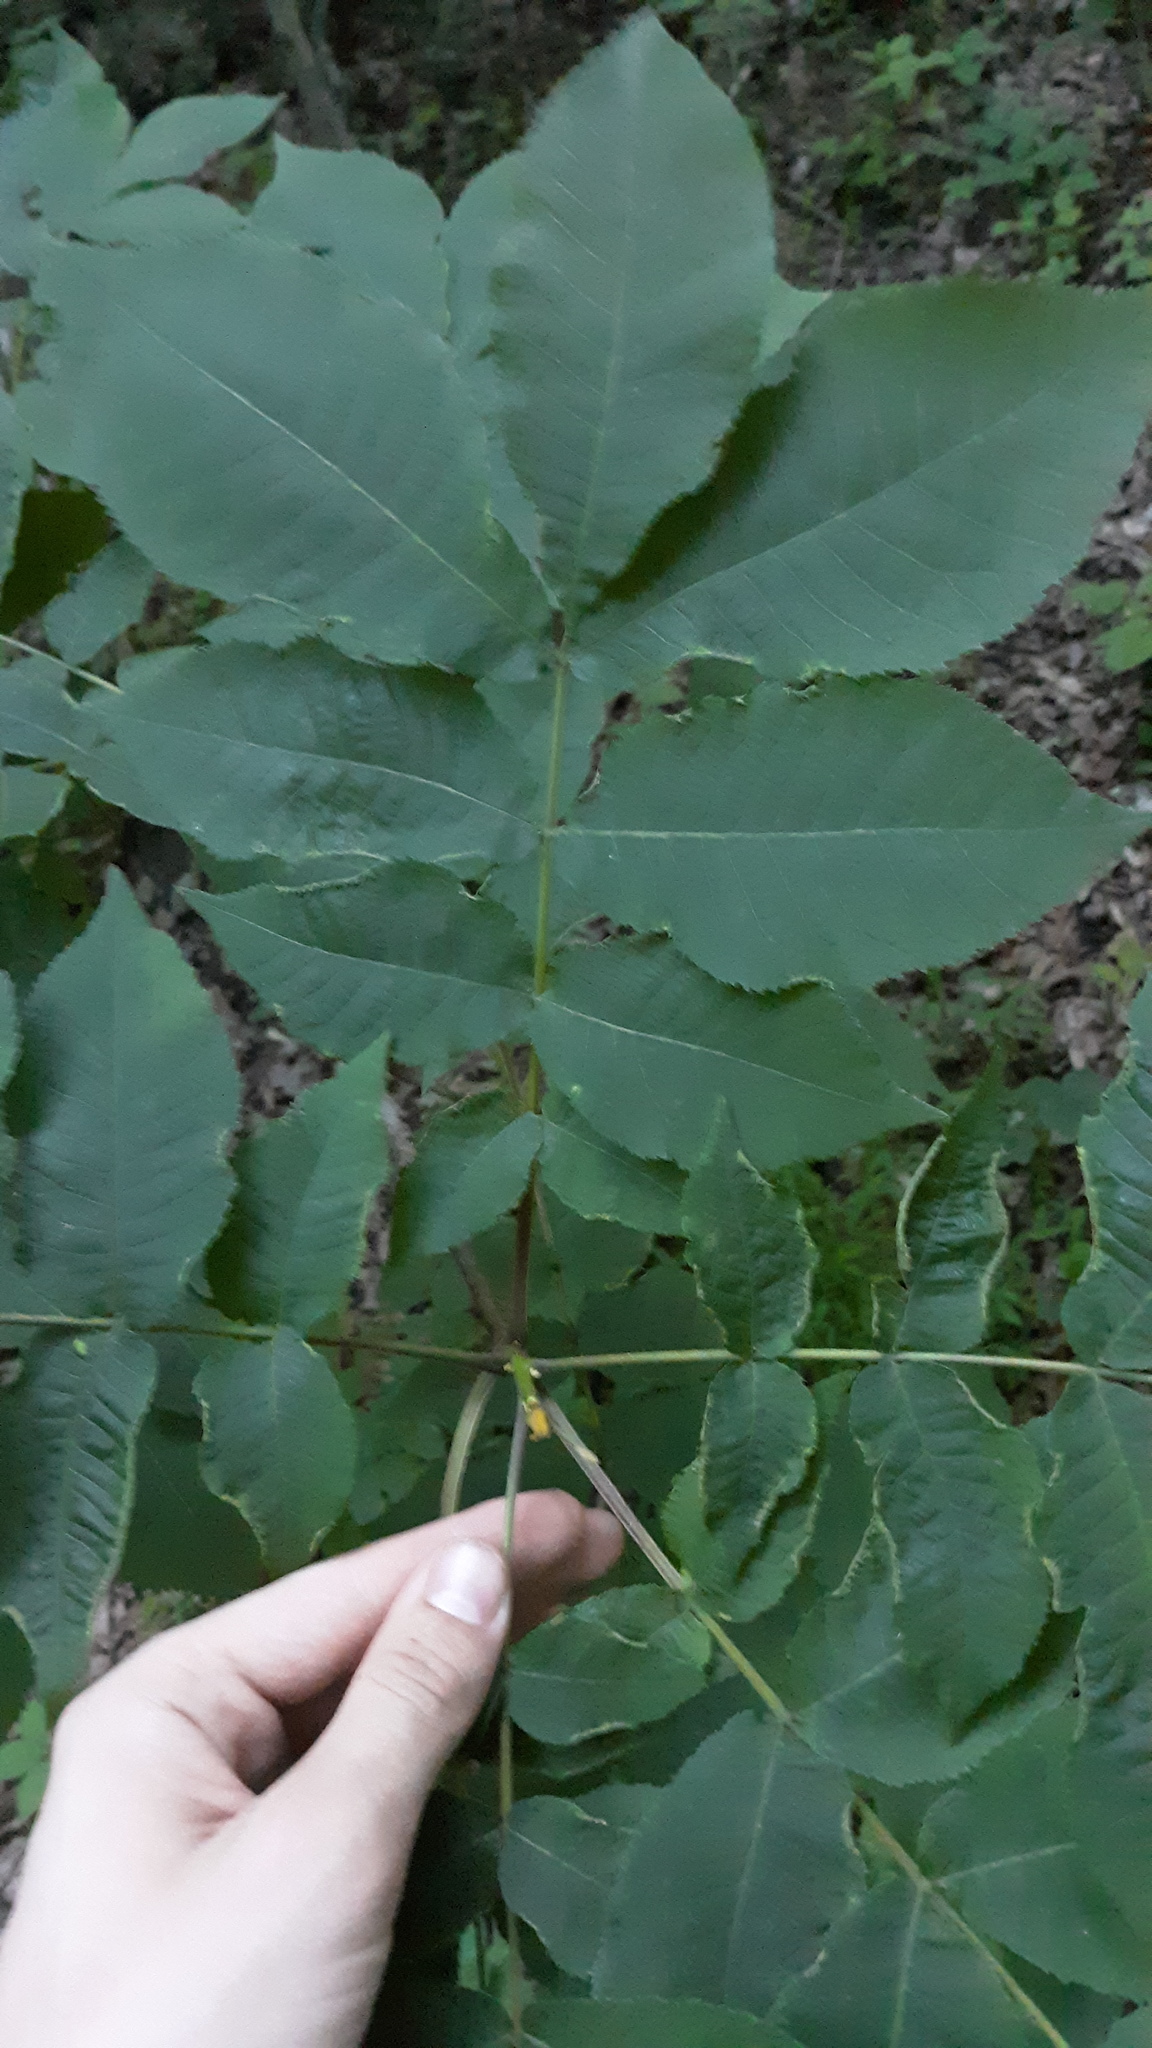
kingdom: Plantae
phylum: Tracheophyta
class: Magnoliopsida
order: Fagales
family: Juglandaceae
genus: Carya
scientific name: Carya cordiformis
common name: Bitternut hickory
